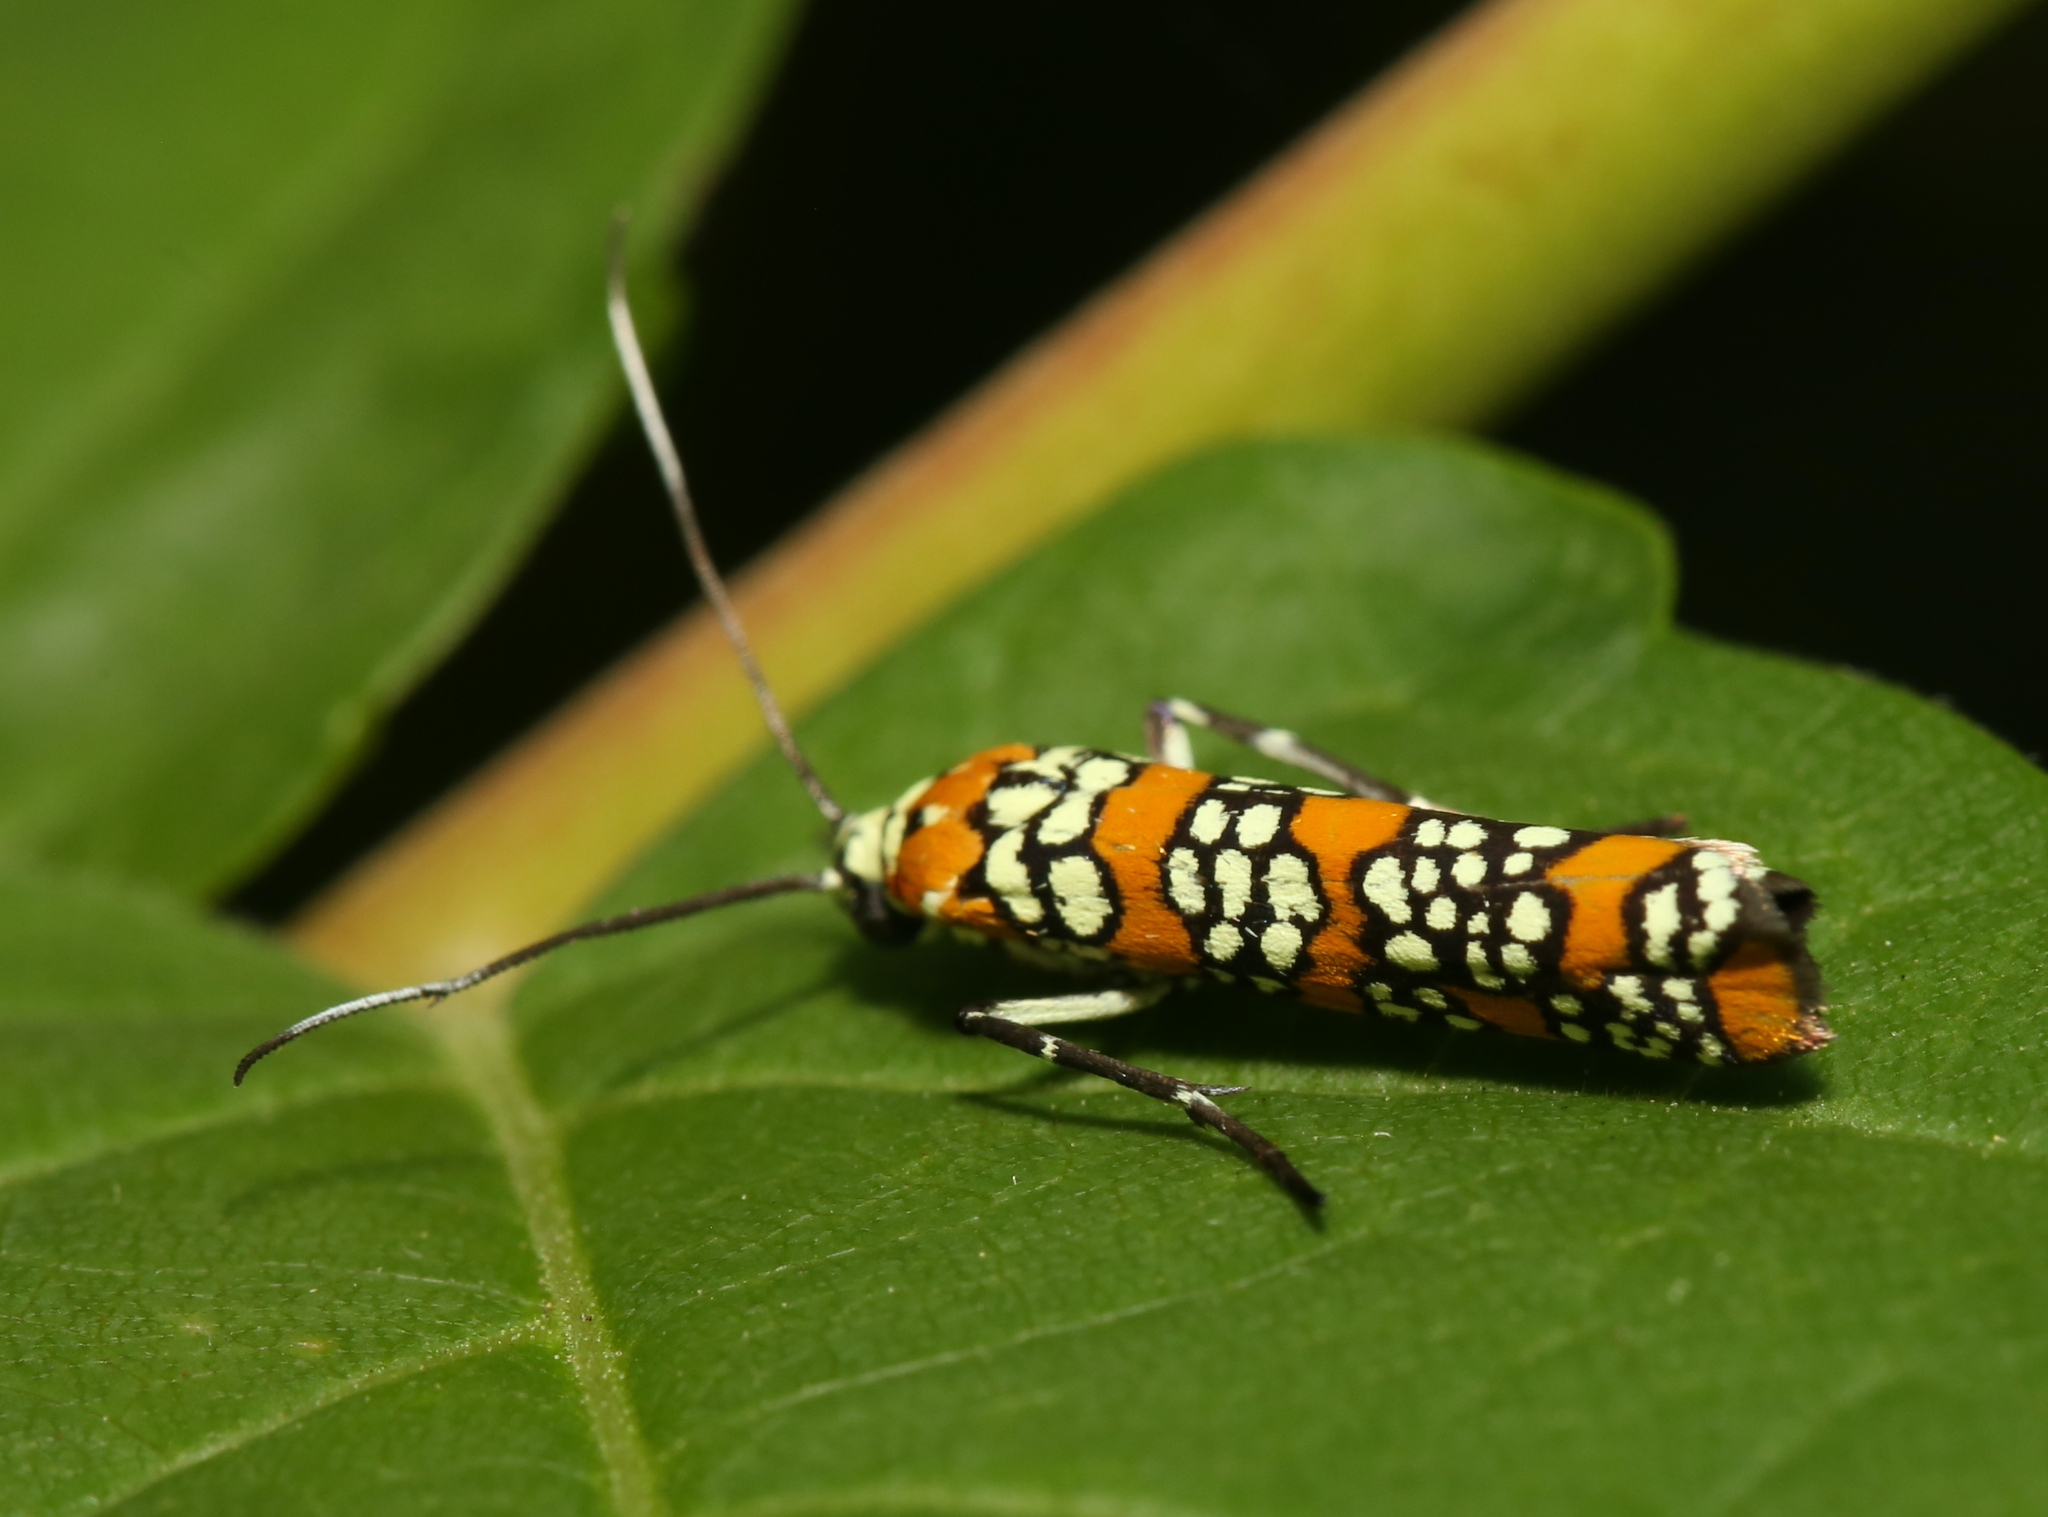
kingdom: Animalia
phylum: Arthropoda
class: Insecta
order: Lepidoptera
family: Attevidae
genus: Atteva
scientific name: Atteva punctella
